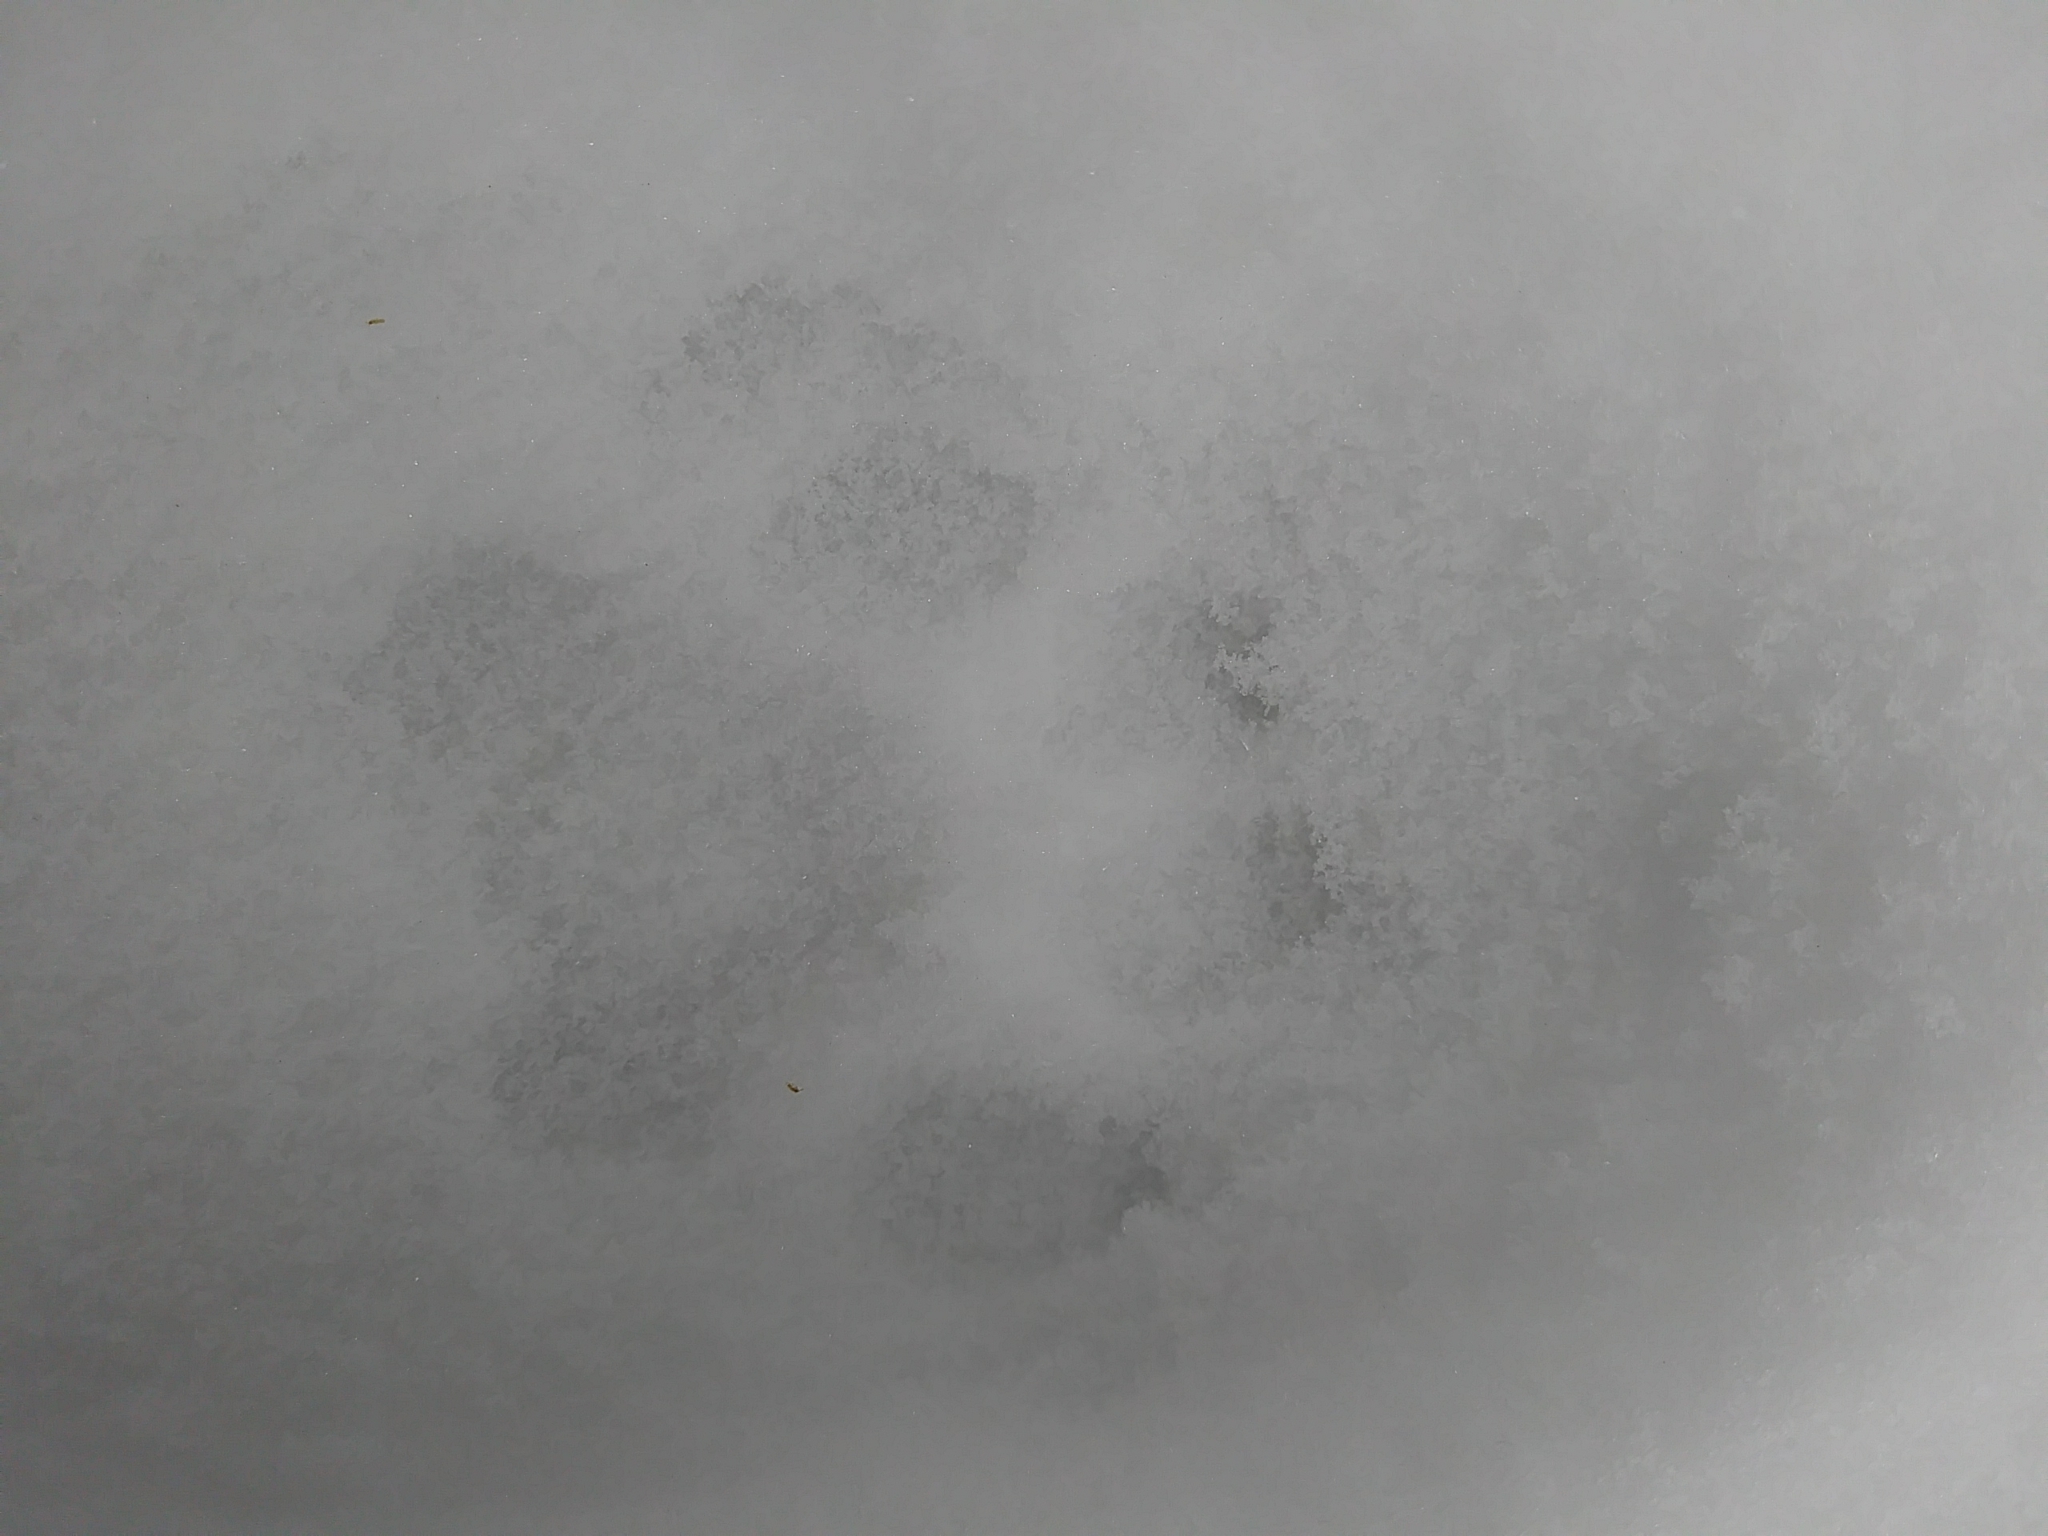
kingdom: Animalia
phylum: Chordata
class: Mammalia
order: Carnivora
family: Felidae
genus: Lynx
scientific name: Lynx rufus
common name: Bobcat
